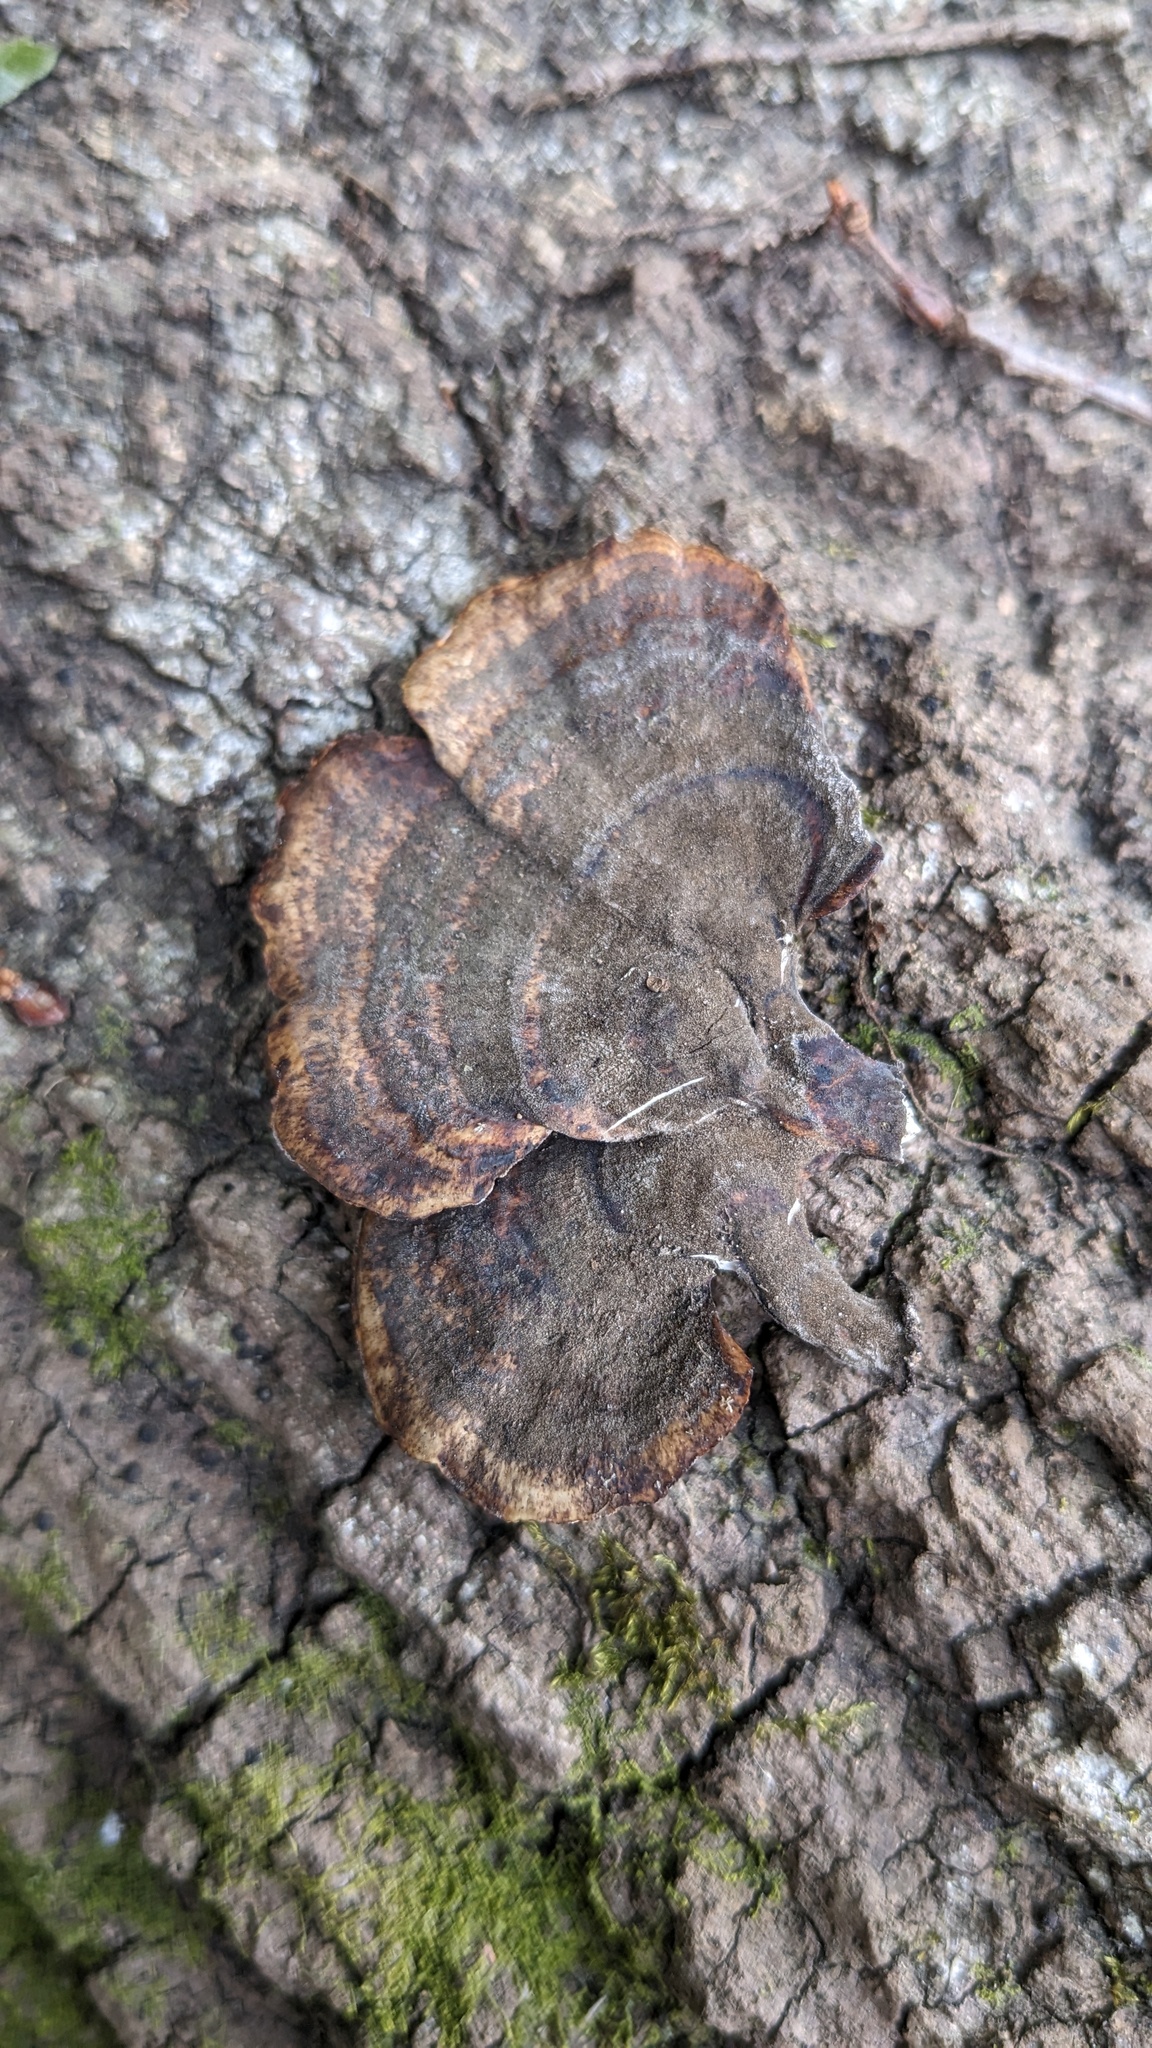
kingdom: Fungi
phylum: Basidiomycota
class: Agaricomycetes
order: Polyporales
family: Polyporaceae
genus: Microporus
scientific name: Microporus affinis
